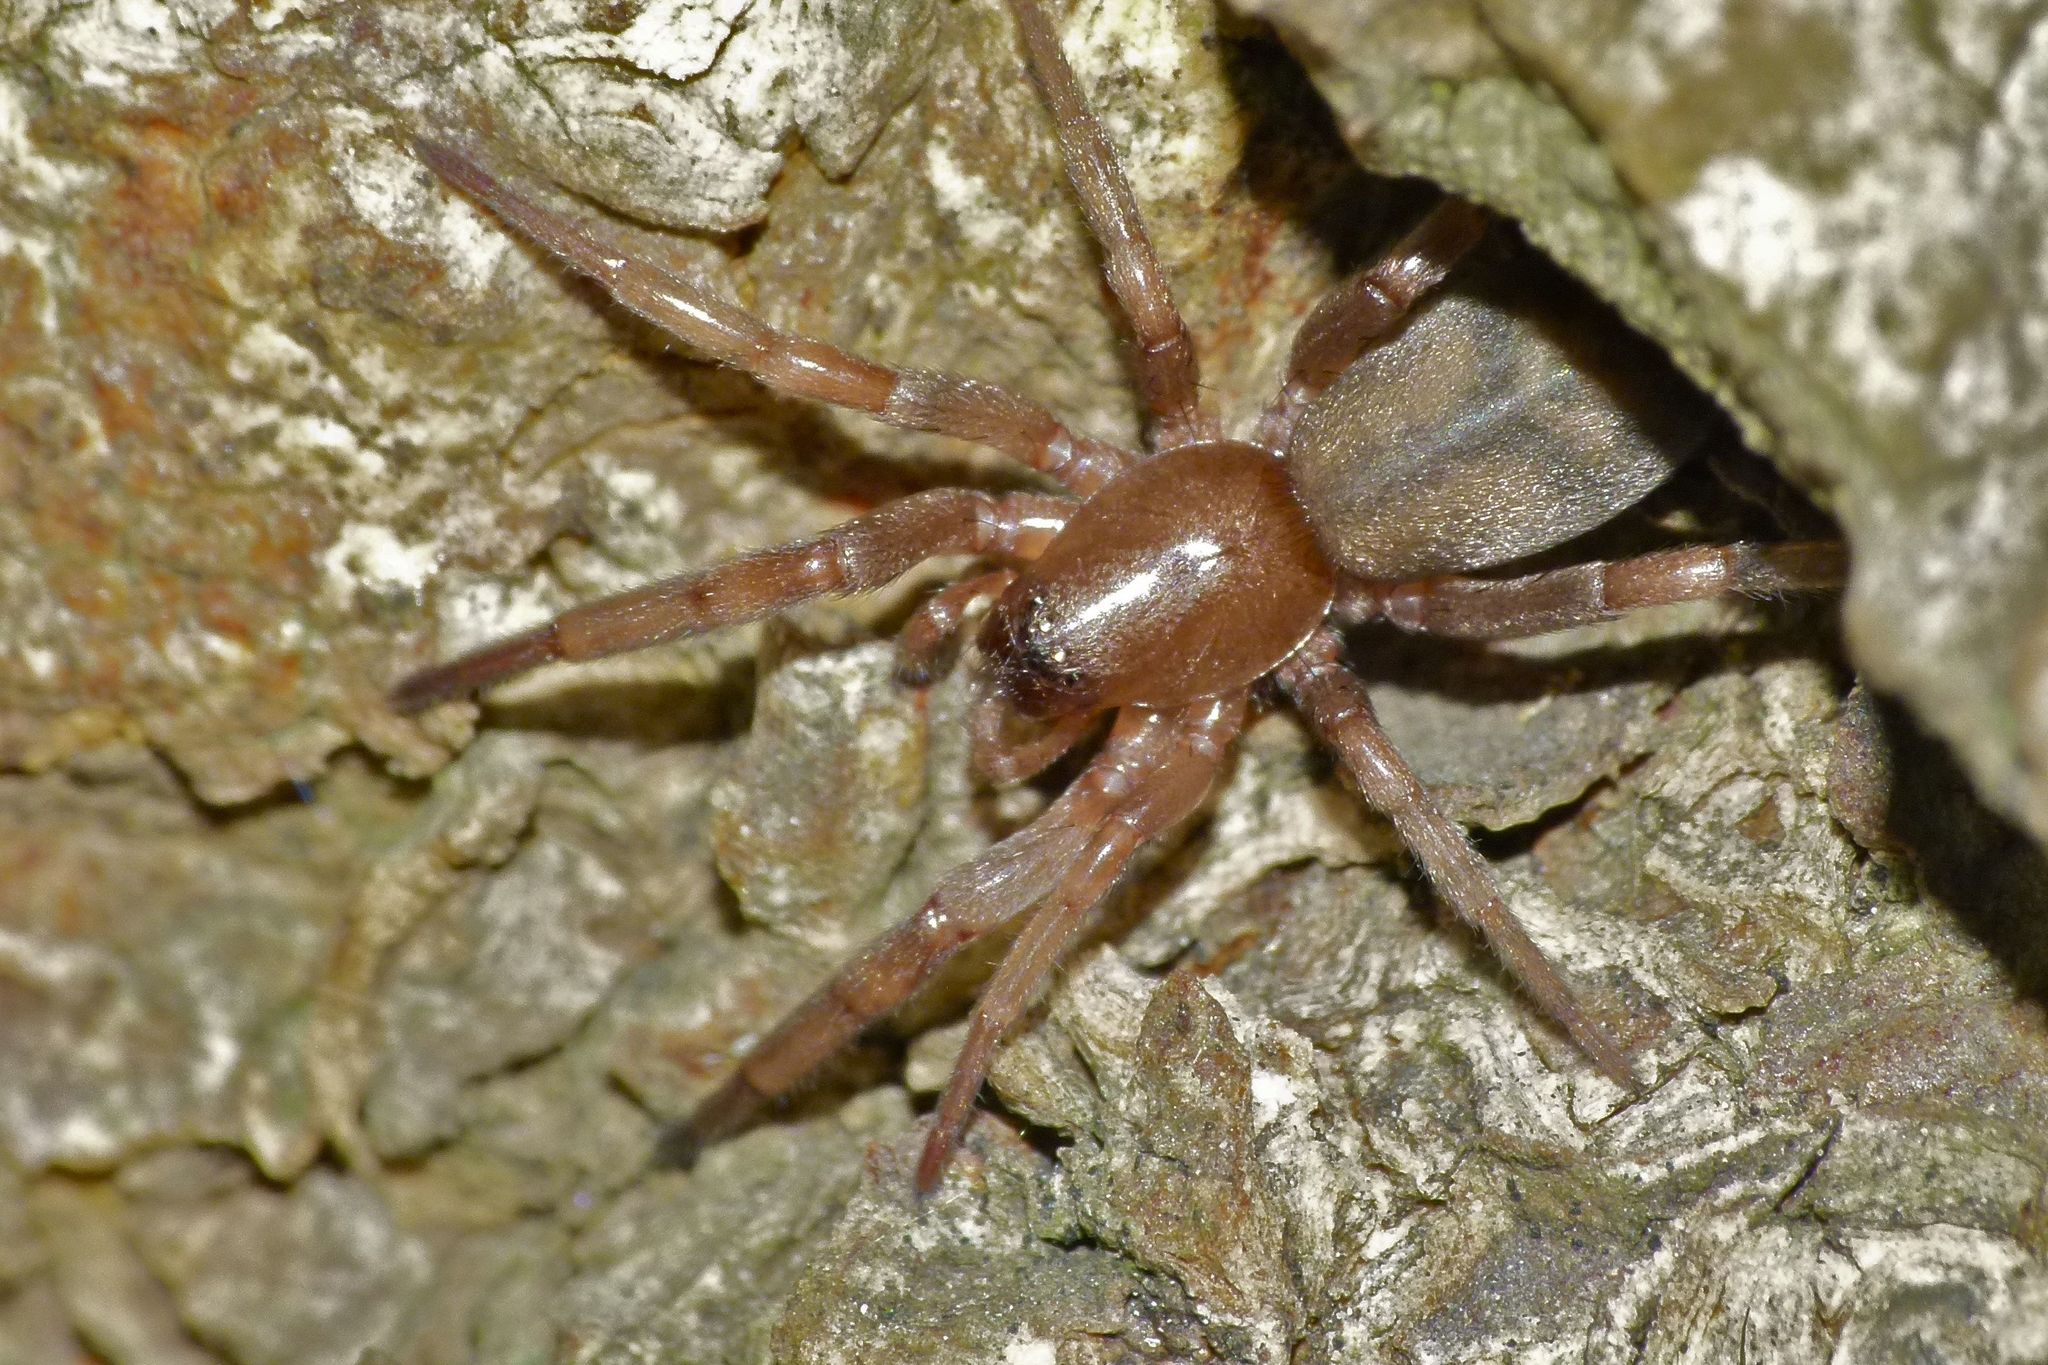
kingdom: Animalia
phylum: Arthropoda
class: Arachnida
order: Araneae
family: Gnaphosidae
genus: Intruda
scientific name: Intruda signata
